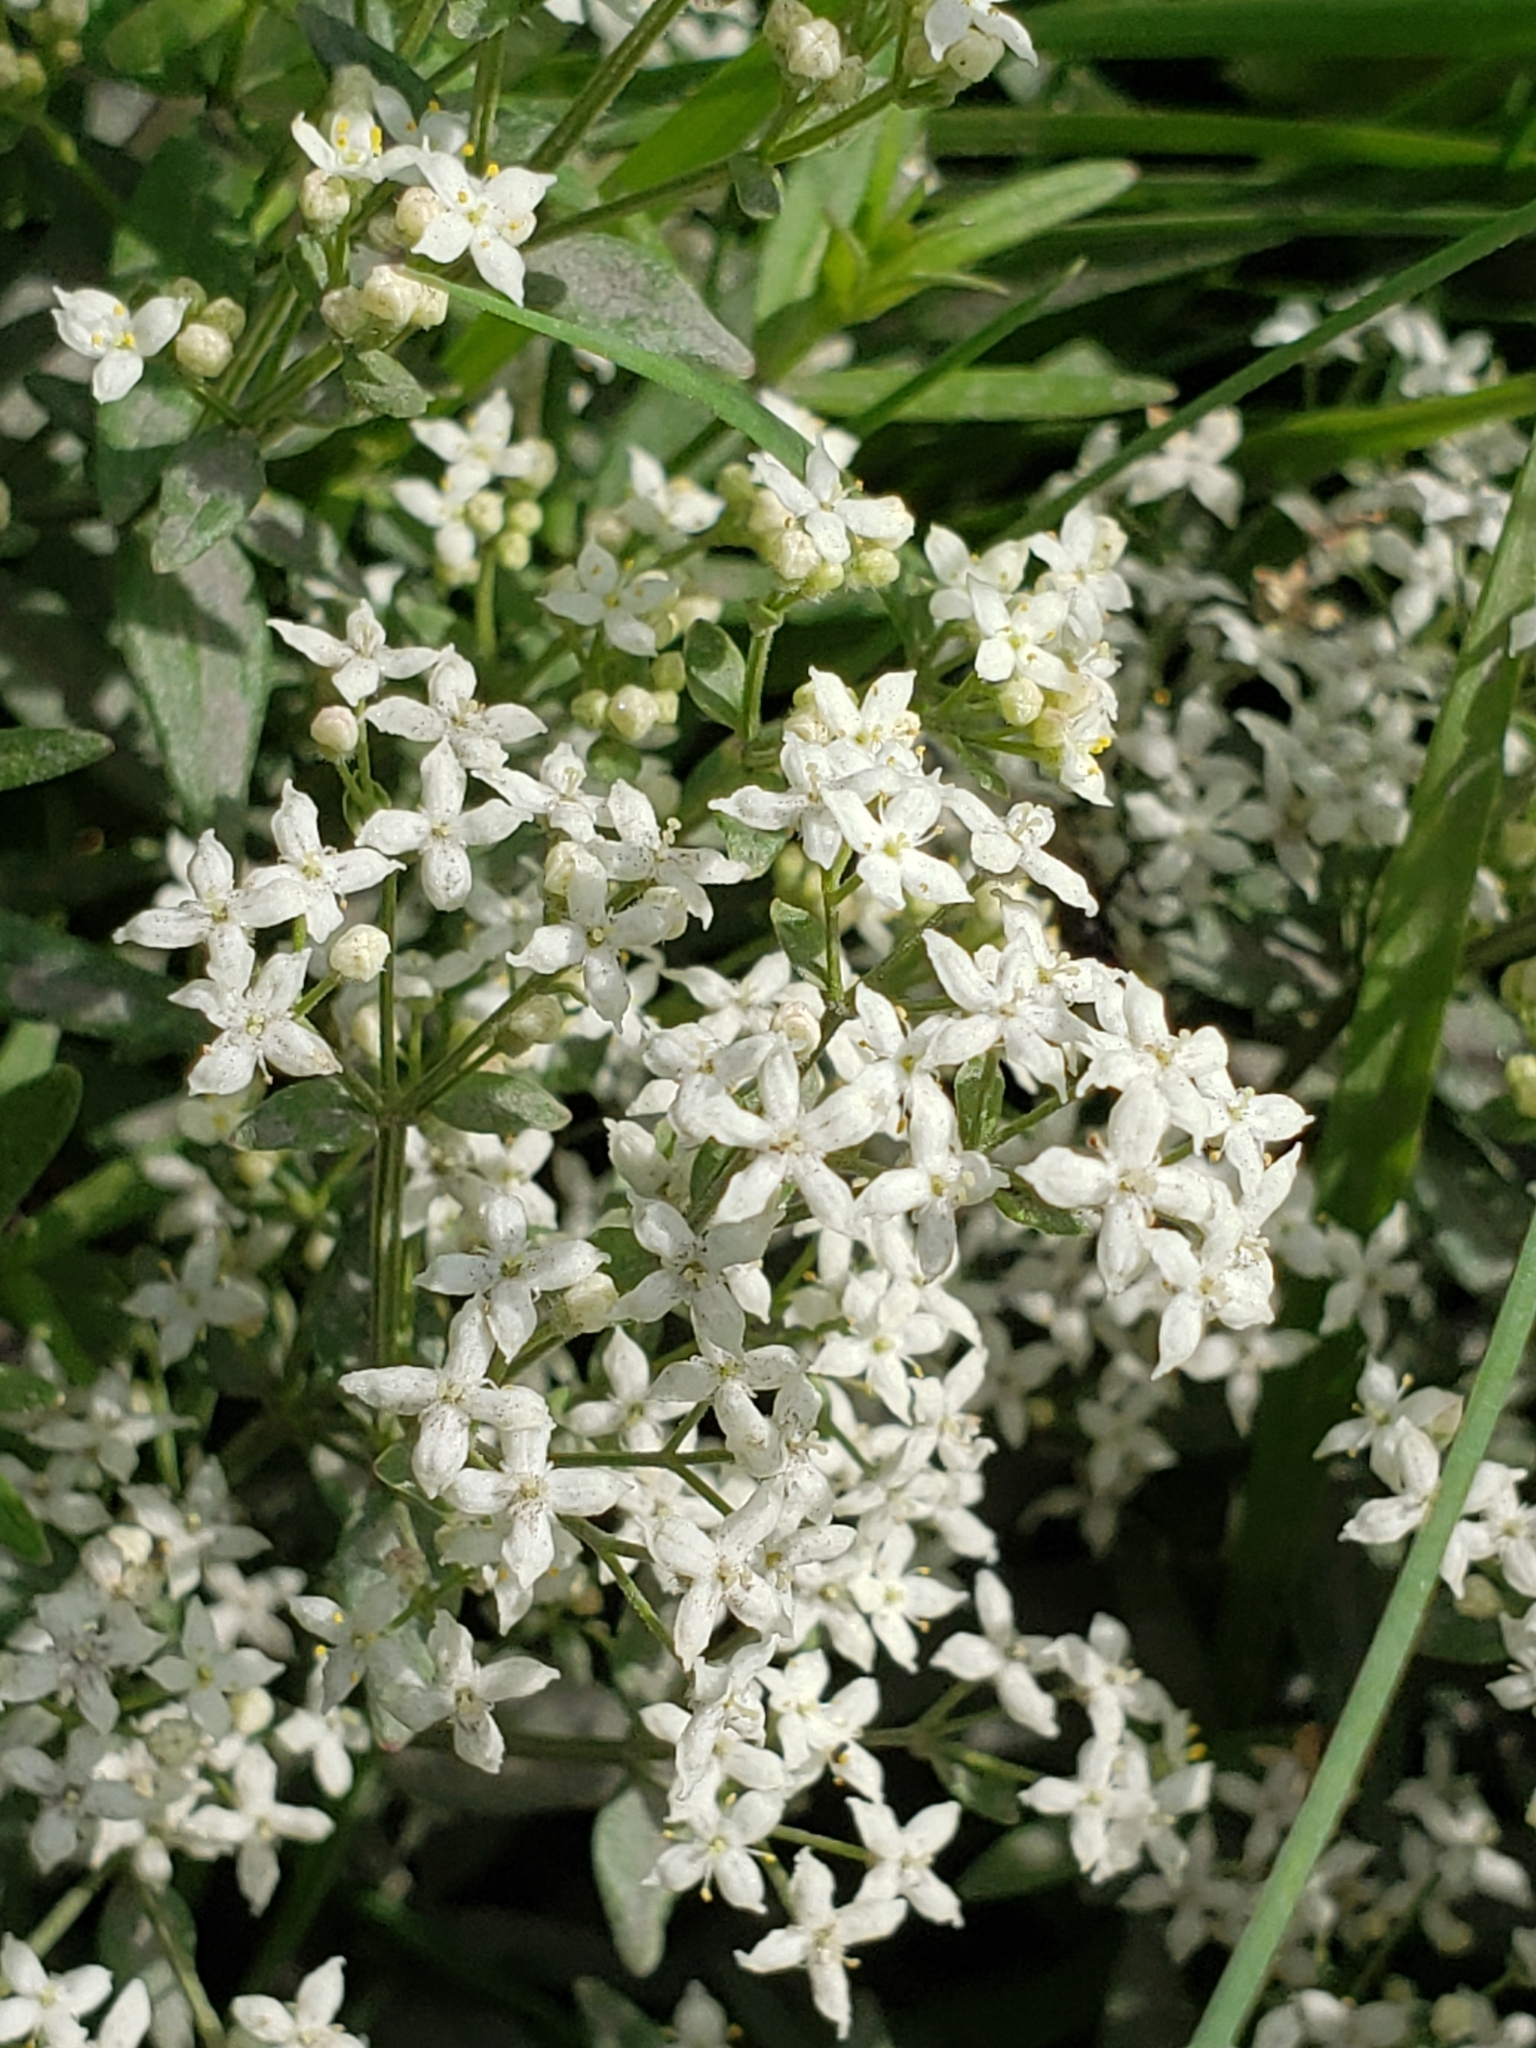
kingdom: Plantae
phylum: Tracheophyta
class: Magnoliopsida
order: Gentianales
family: Rubiaceae
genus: Galium
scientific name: Galium boreale
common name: Northern bedstraw
